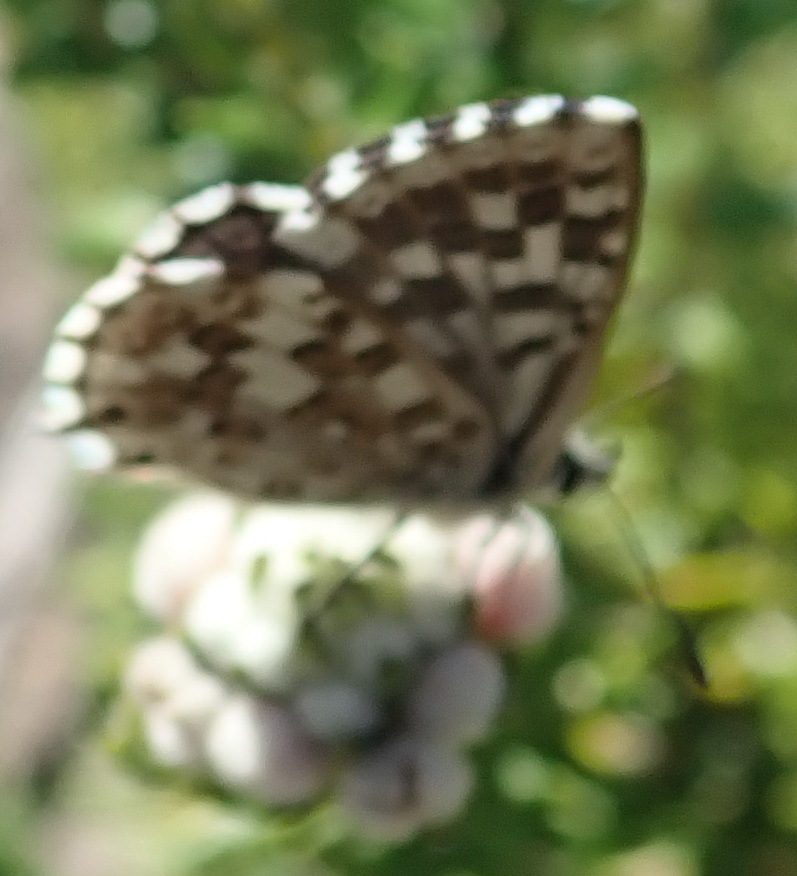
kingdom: Animalia
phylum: Arthropoda
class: Insecta
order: Lepidoptera
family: Lycaenidae
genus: Tarucus
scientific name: Tarucus thespis
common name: Vivid dotted blue
